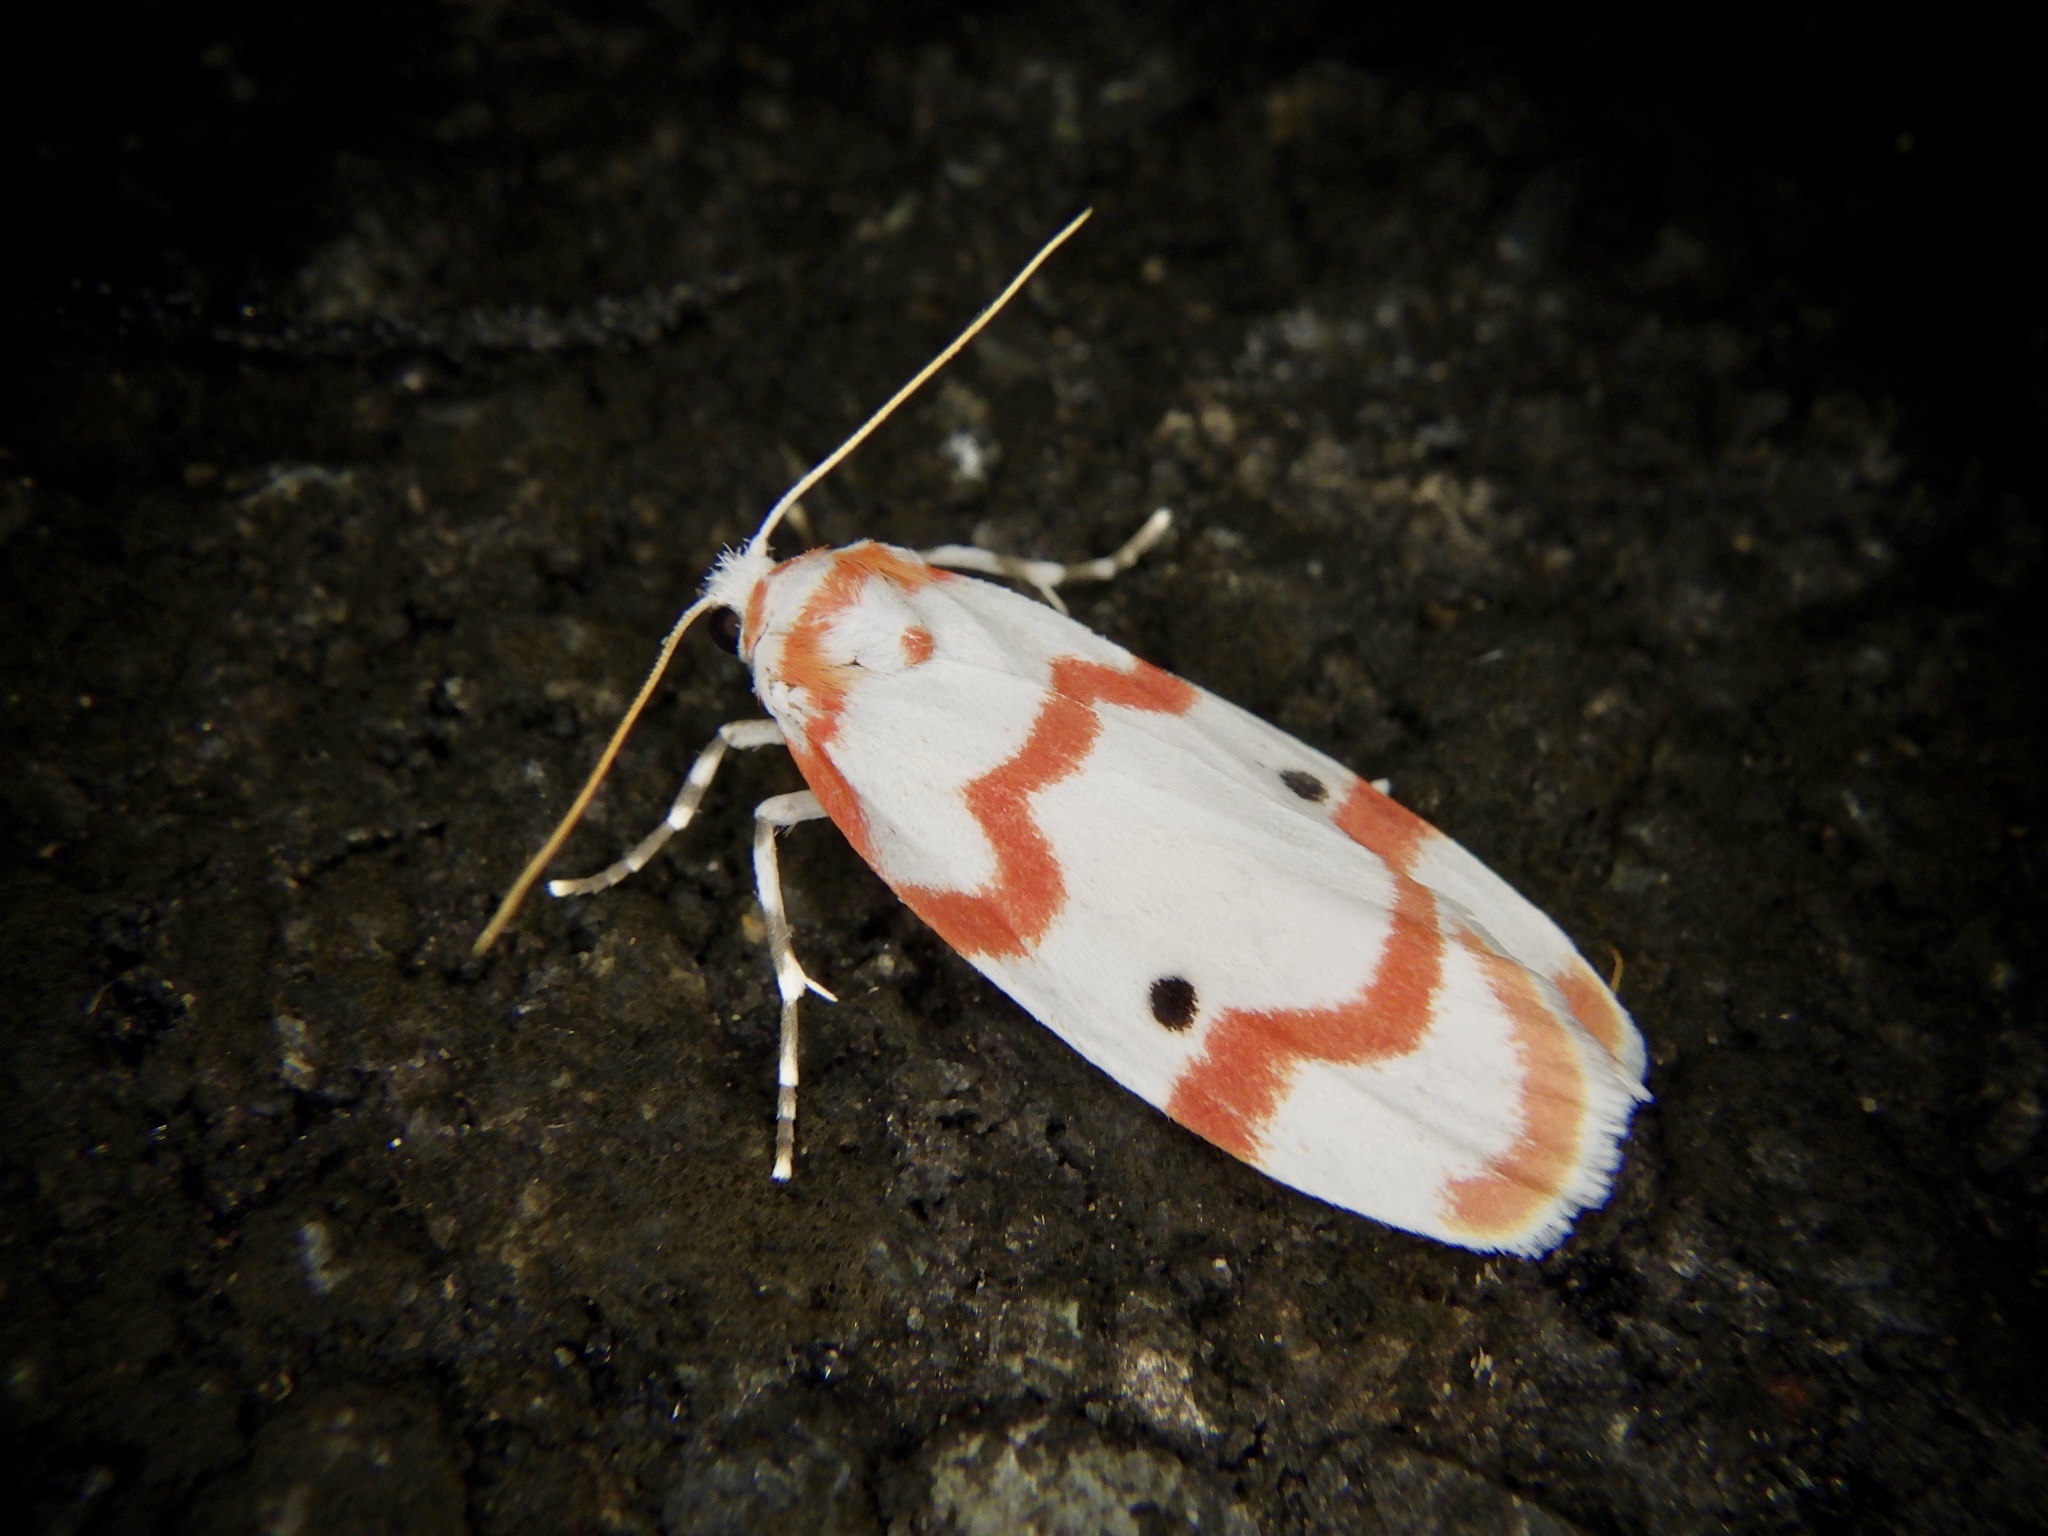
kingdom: Animalia
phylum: Arthropoda
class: Insecta
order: Lepidoptera
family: Erebidae
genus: Cyana
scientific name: Cyana hamata
